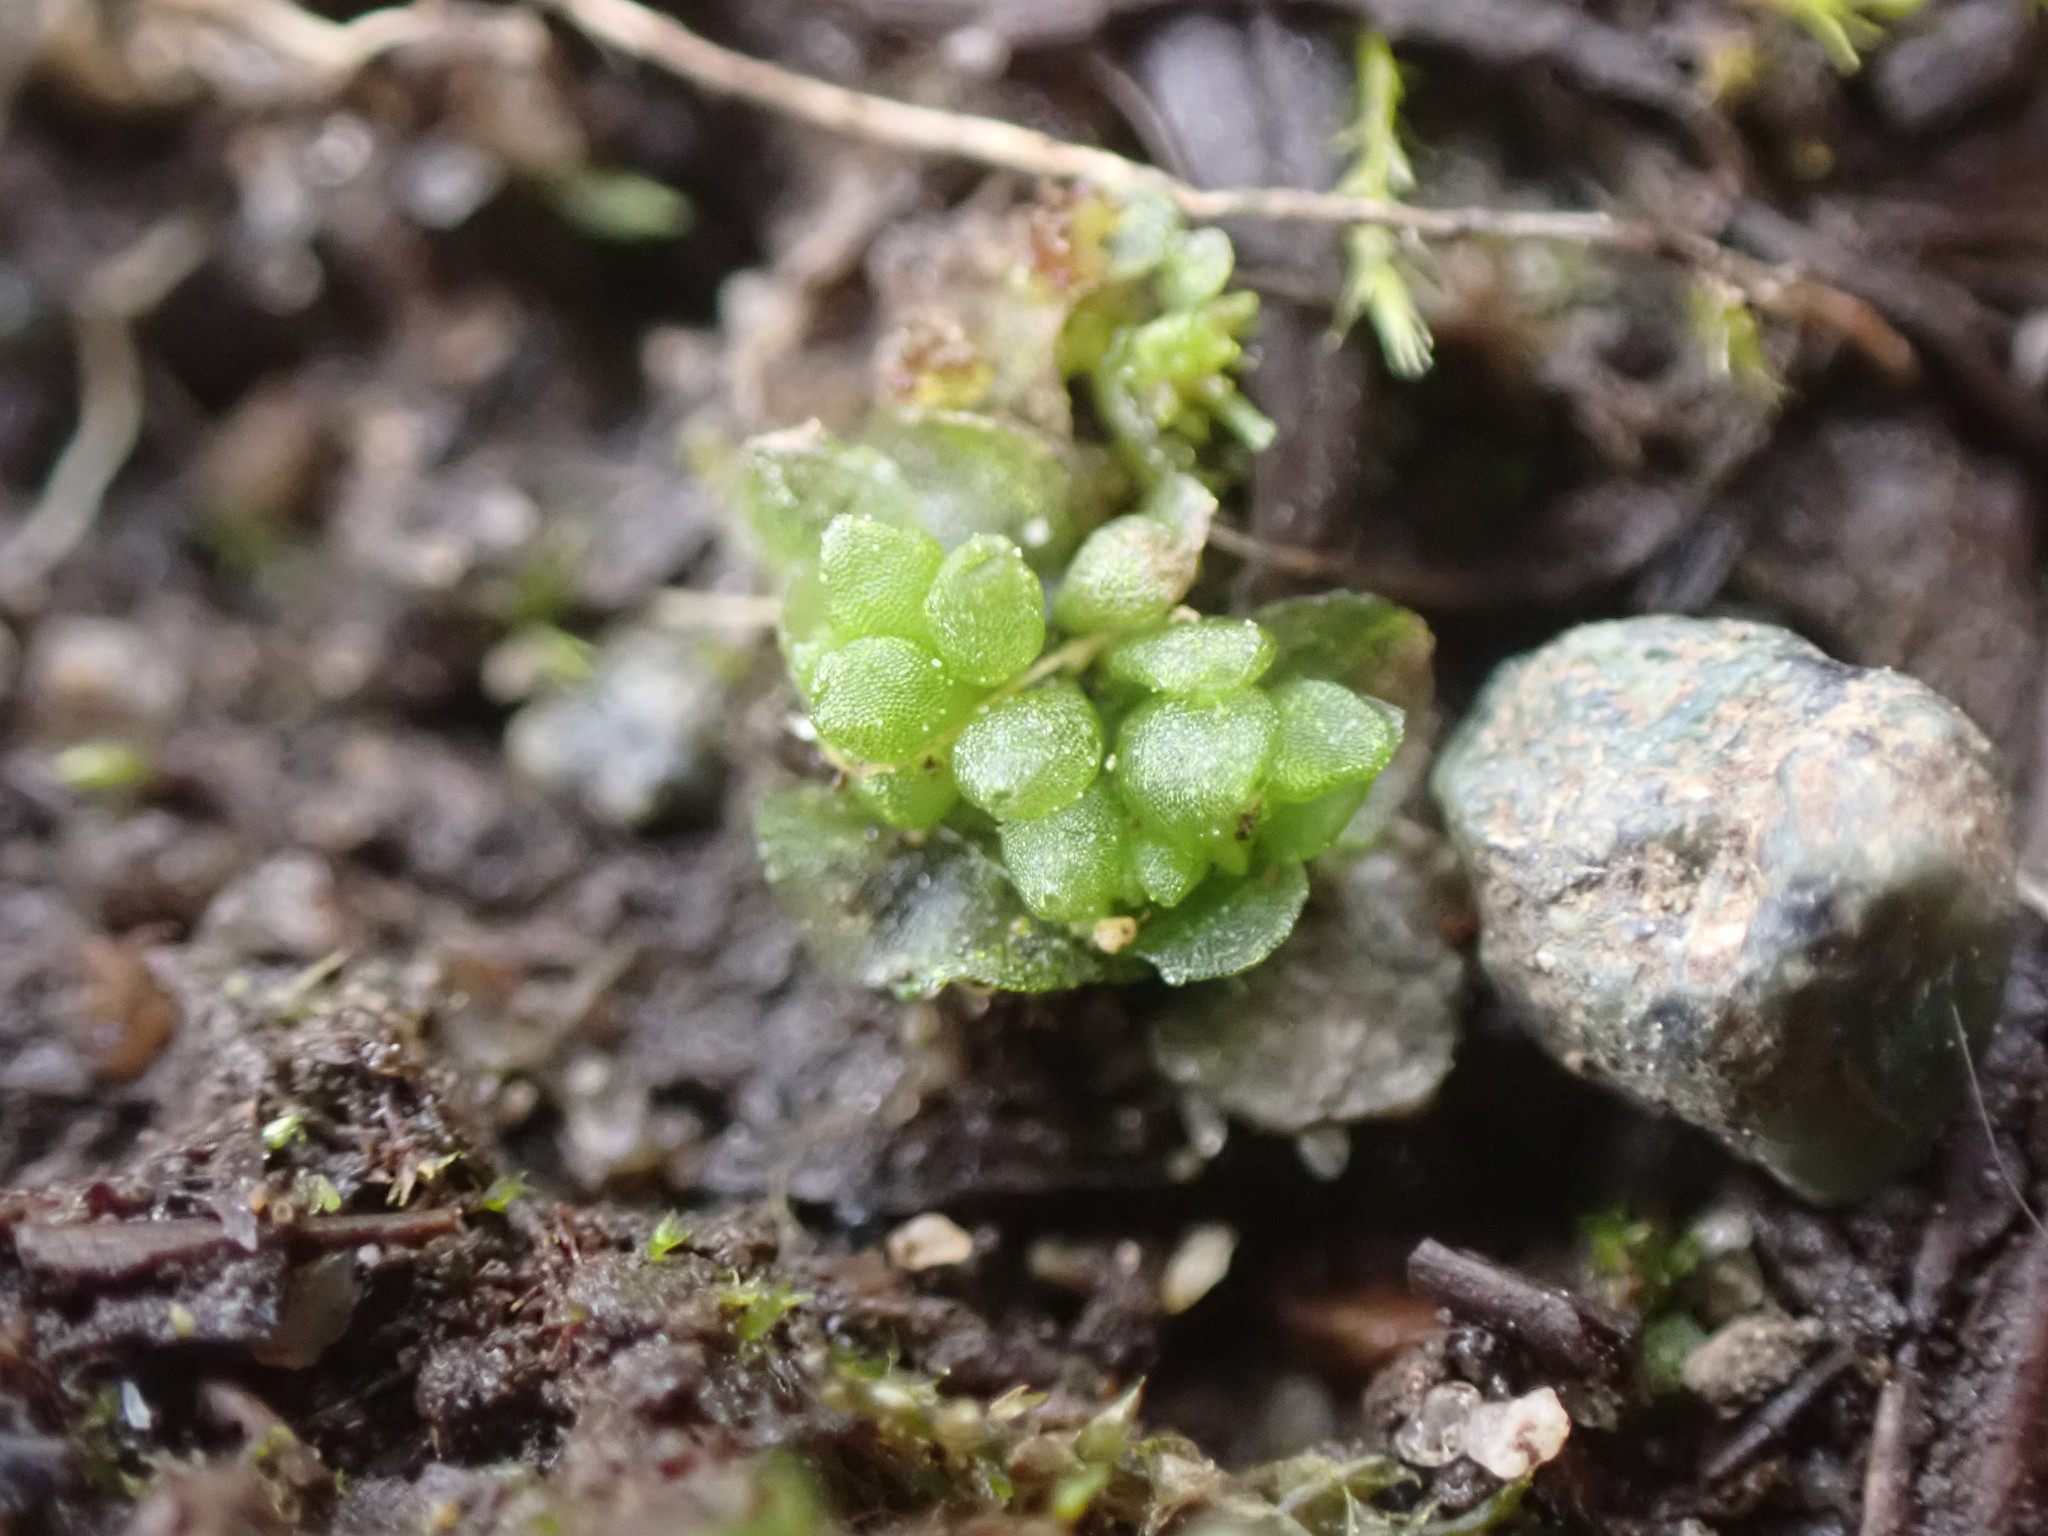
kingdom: Plantae
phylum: Marchantiophyta
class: Marchantiopsida
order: Sphaerocarpales
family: Sphaerocarpaceae
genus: Sphaerocarpos
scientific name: Sphaerocarpos texanus
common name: Texas balloonwort
